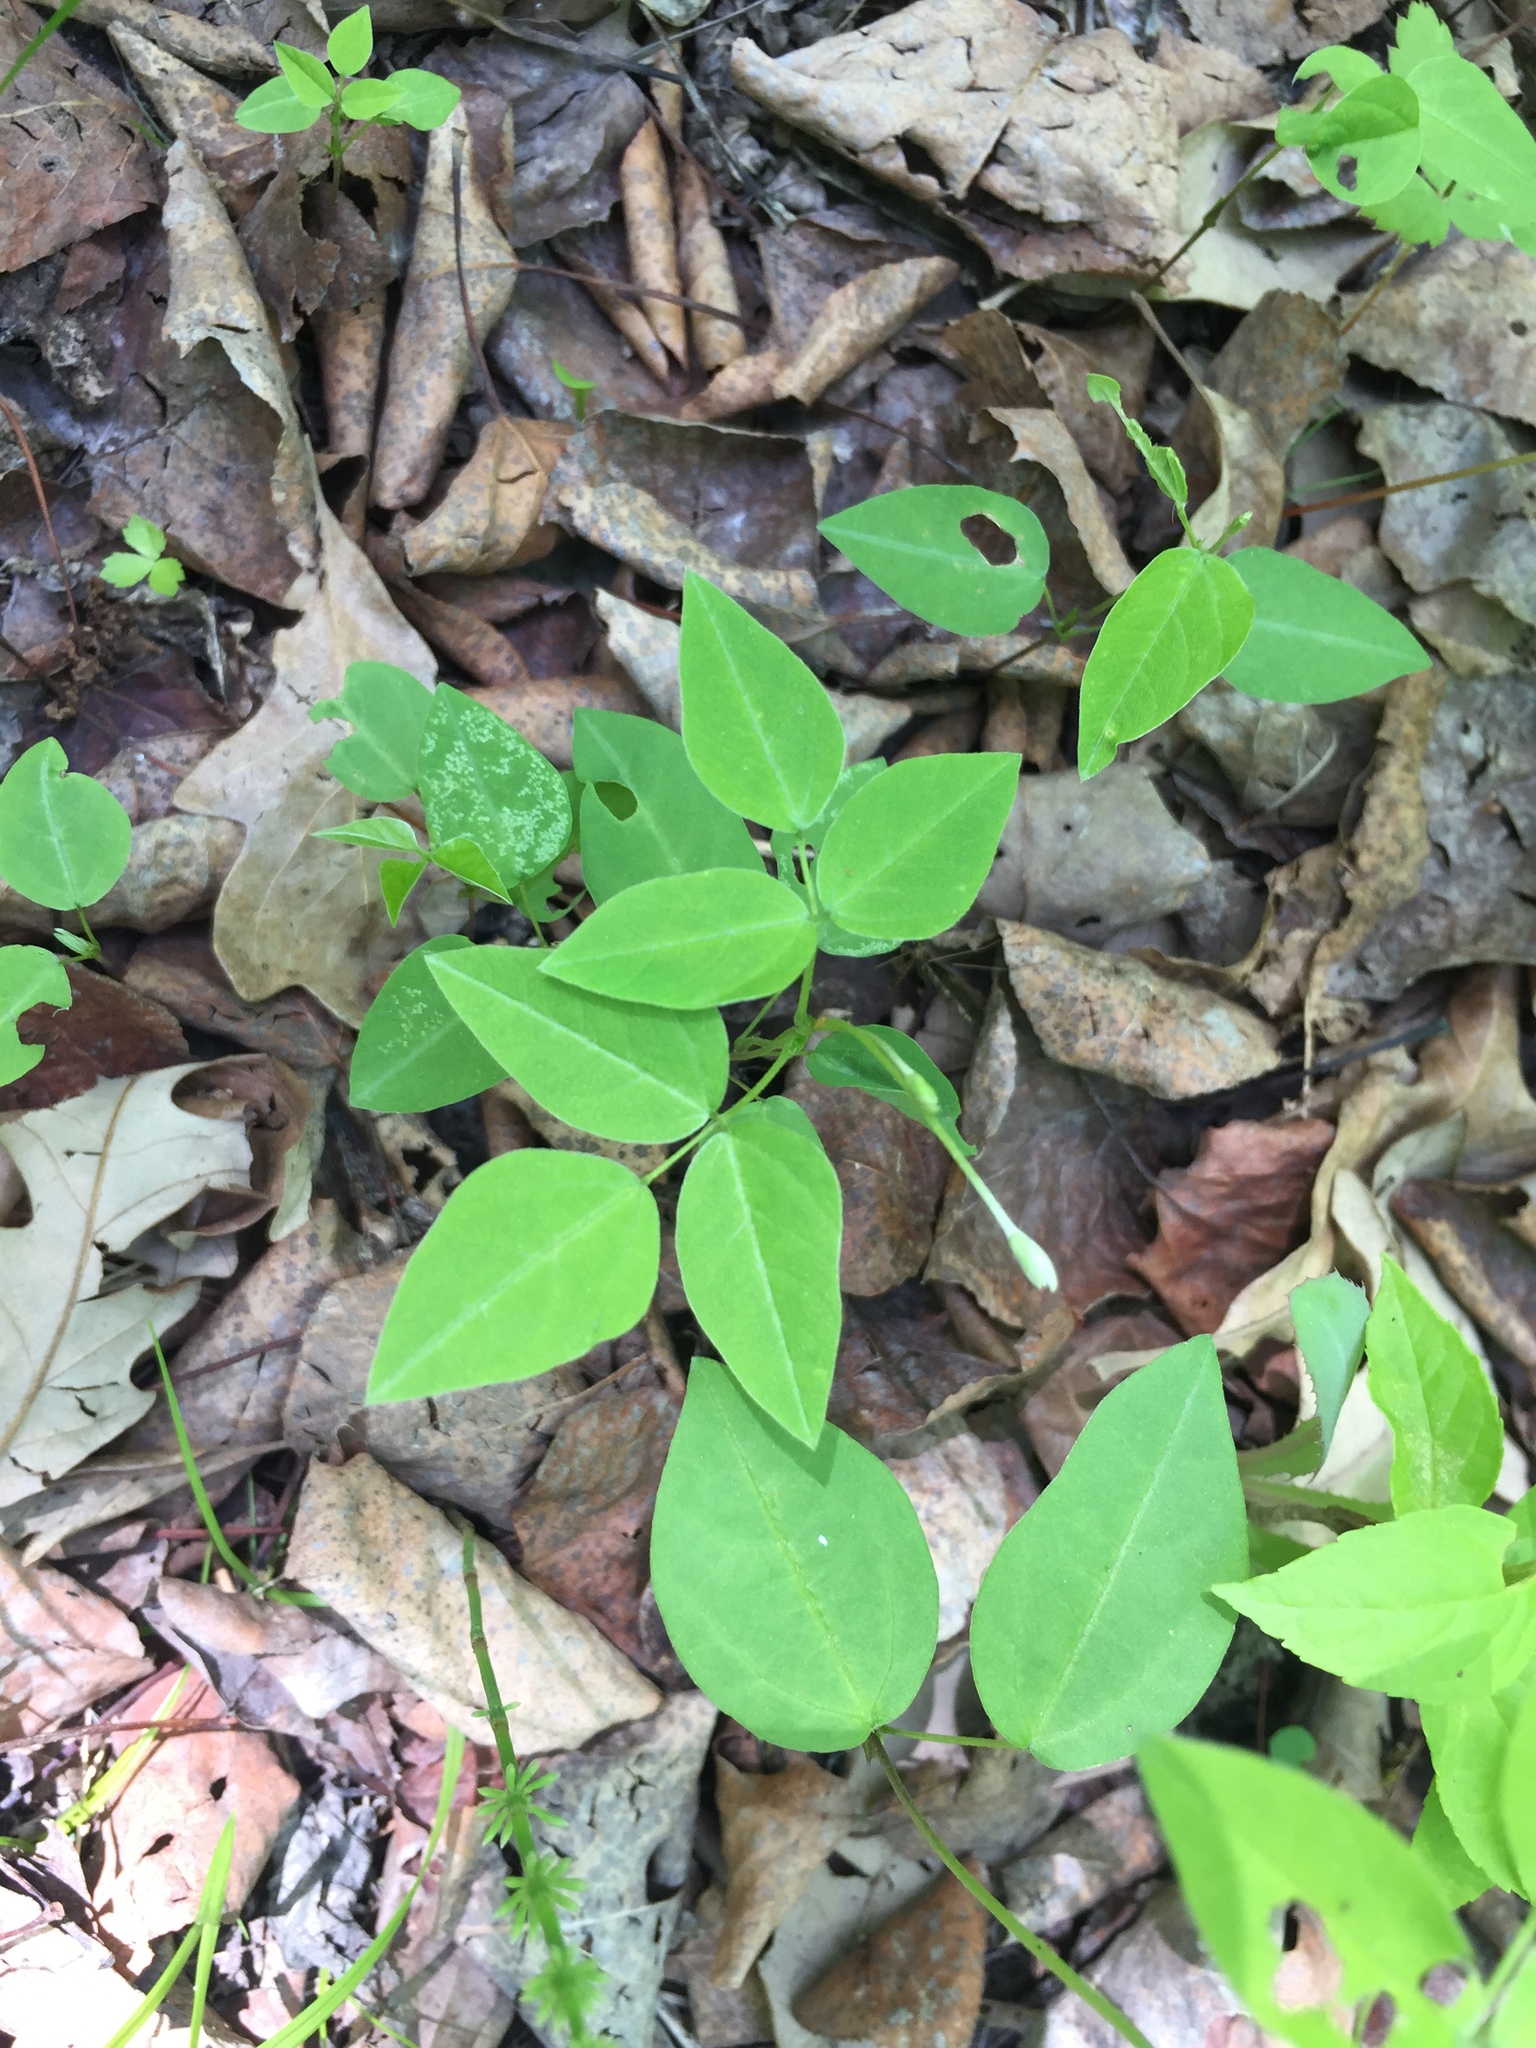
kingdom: Plantae
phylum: Tracheophyta
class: Magnoliopsida
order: Fabales
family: Fabaceae
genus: Amphicarpaea
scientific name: Amphicarpaea bracteata
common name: American hog peanut
